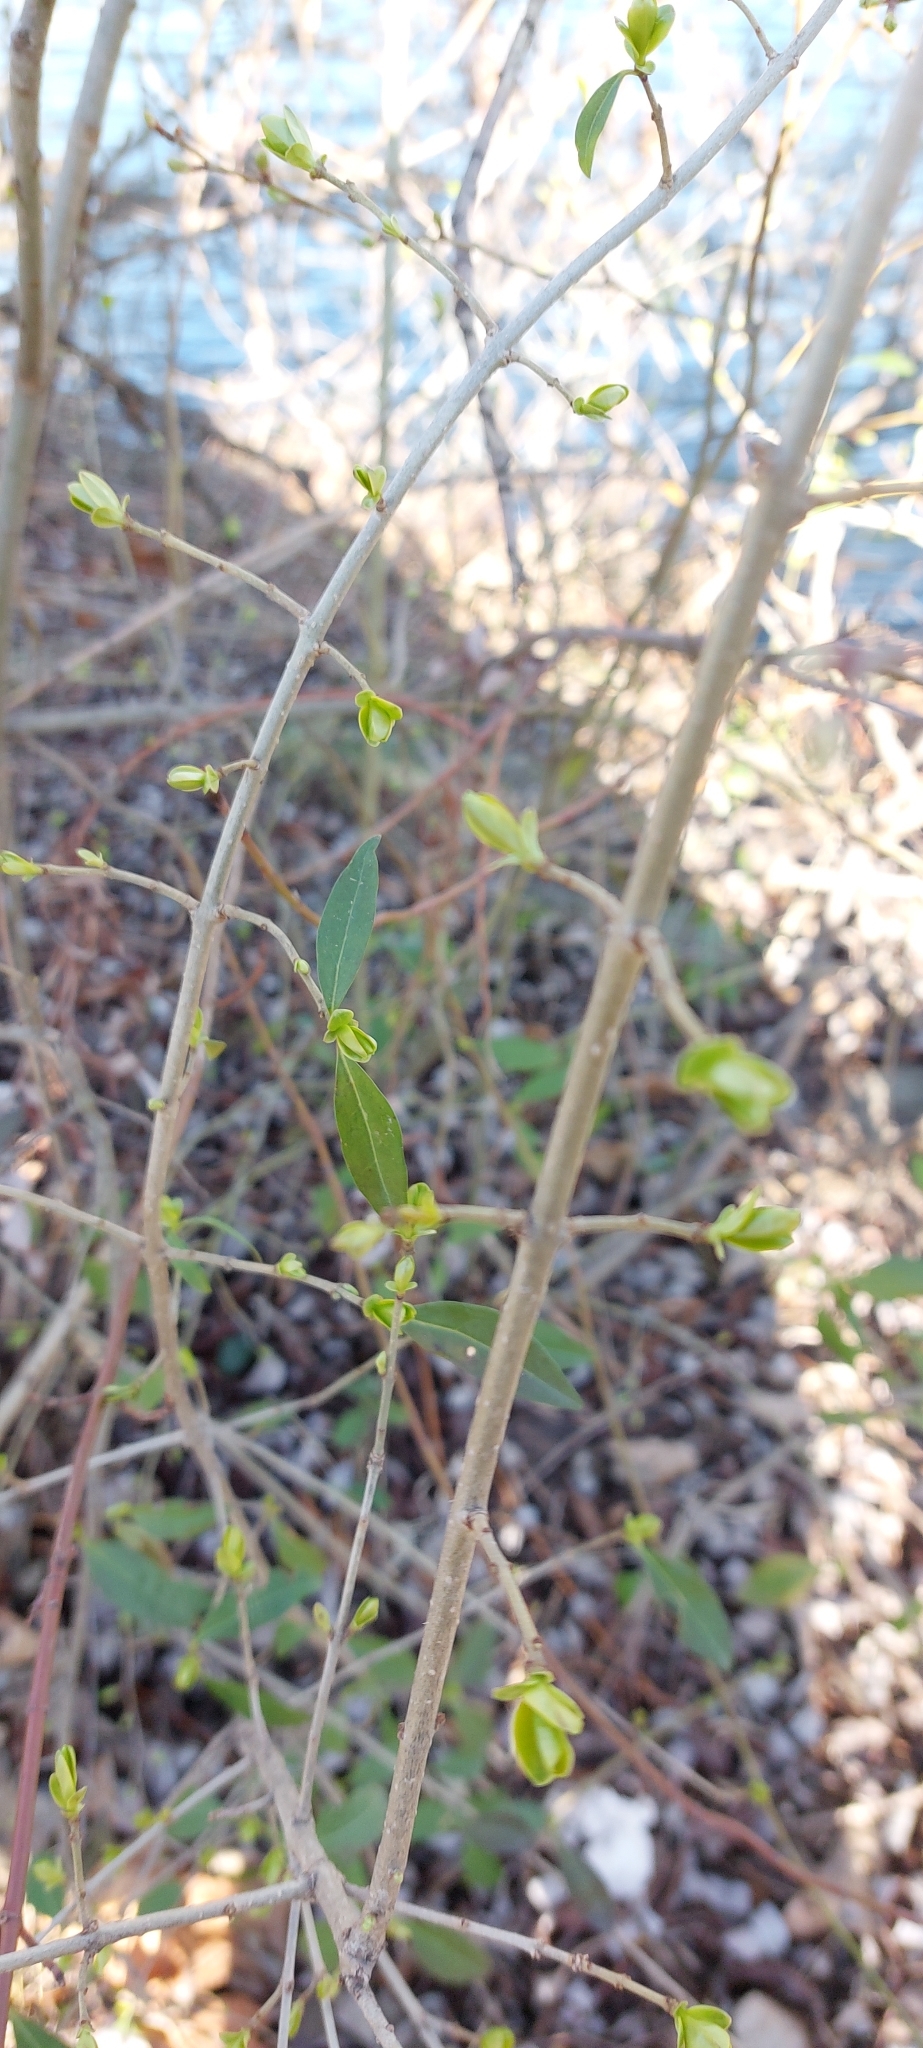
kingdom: Plantae
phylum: Tracheophyta
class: Magnoliopsida
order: Lamiales
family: Oleaceae
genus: Ligustrum
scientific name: Ligustrum vulgare
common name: Wild privet
